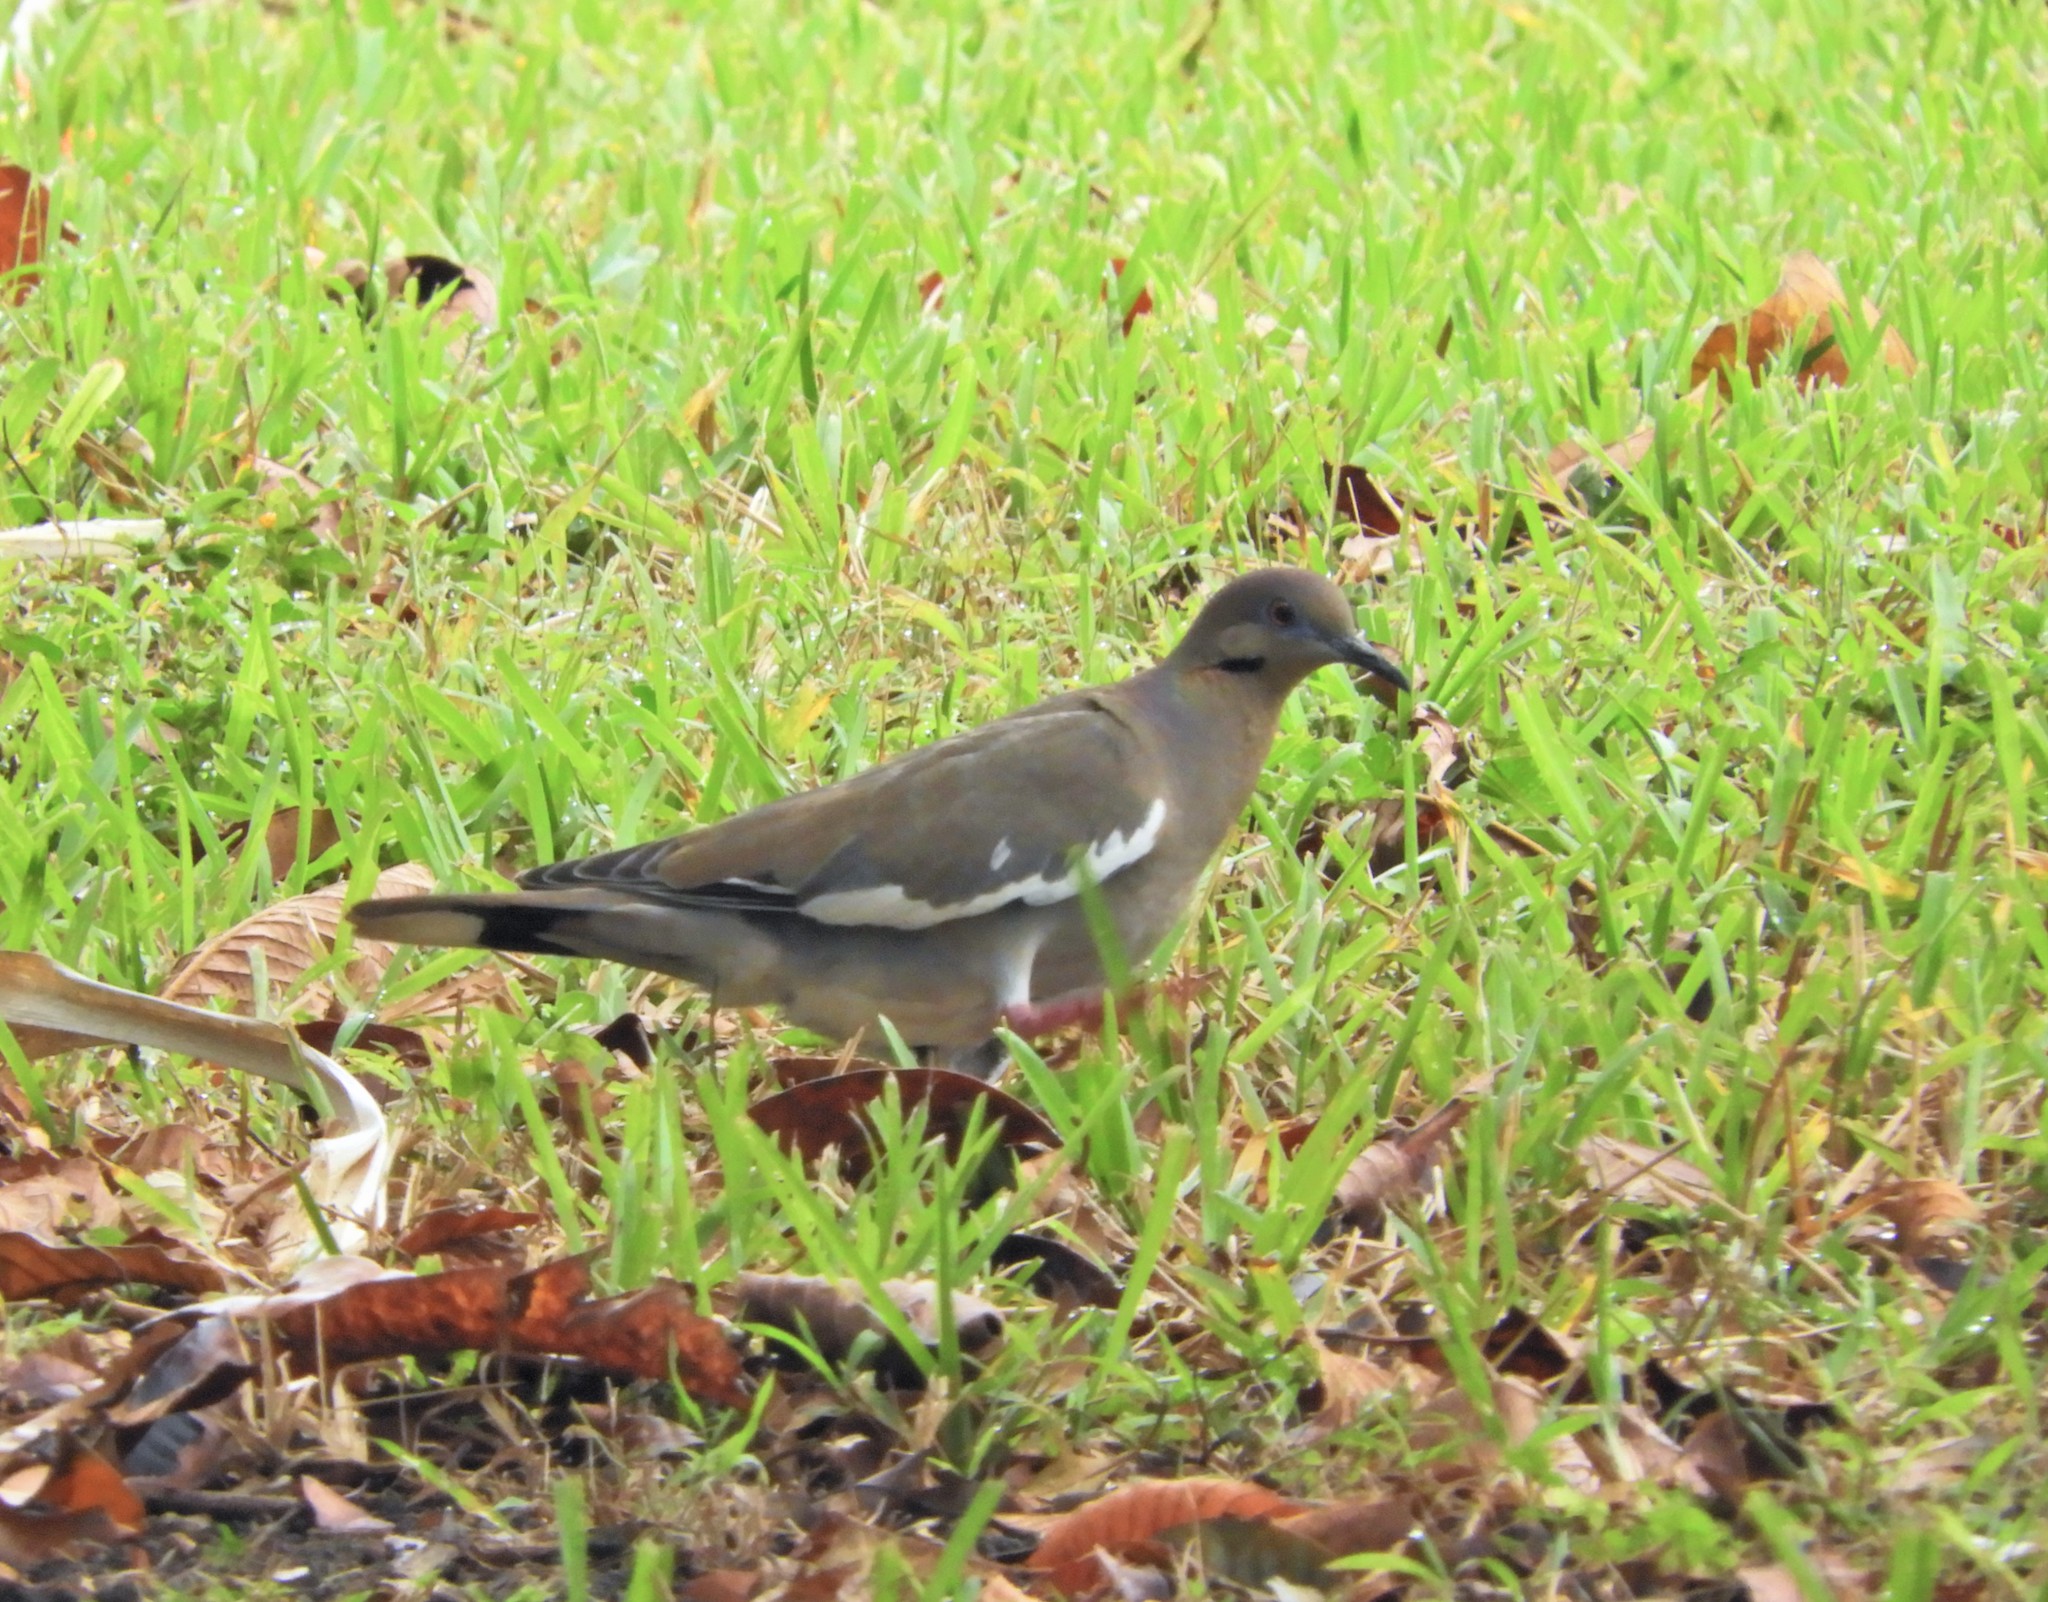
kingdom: Animalia
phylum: Chordata
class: Aves
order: Columbiformes
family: Columbidae
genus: Zenaida
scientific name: Zenaida asiatica
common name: White-winged dove
